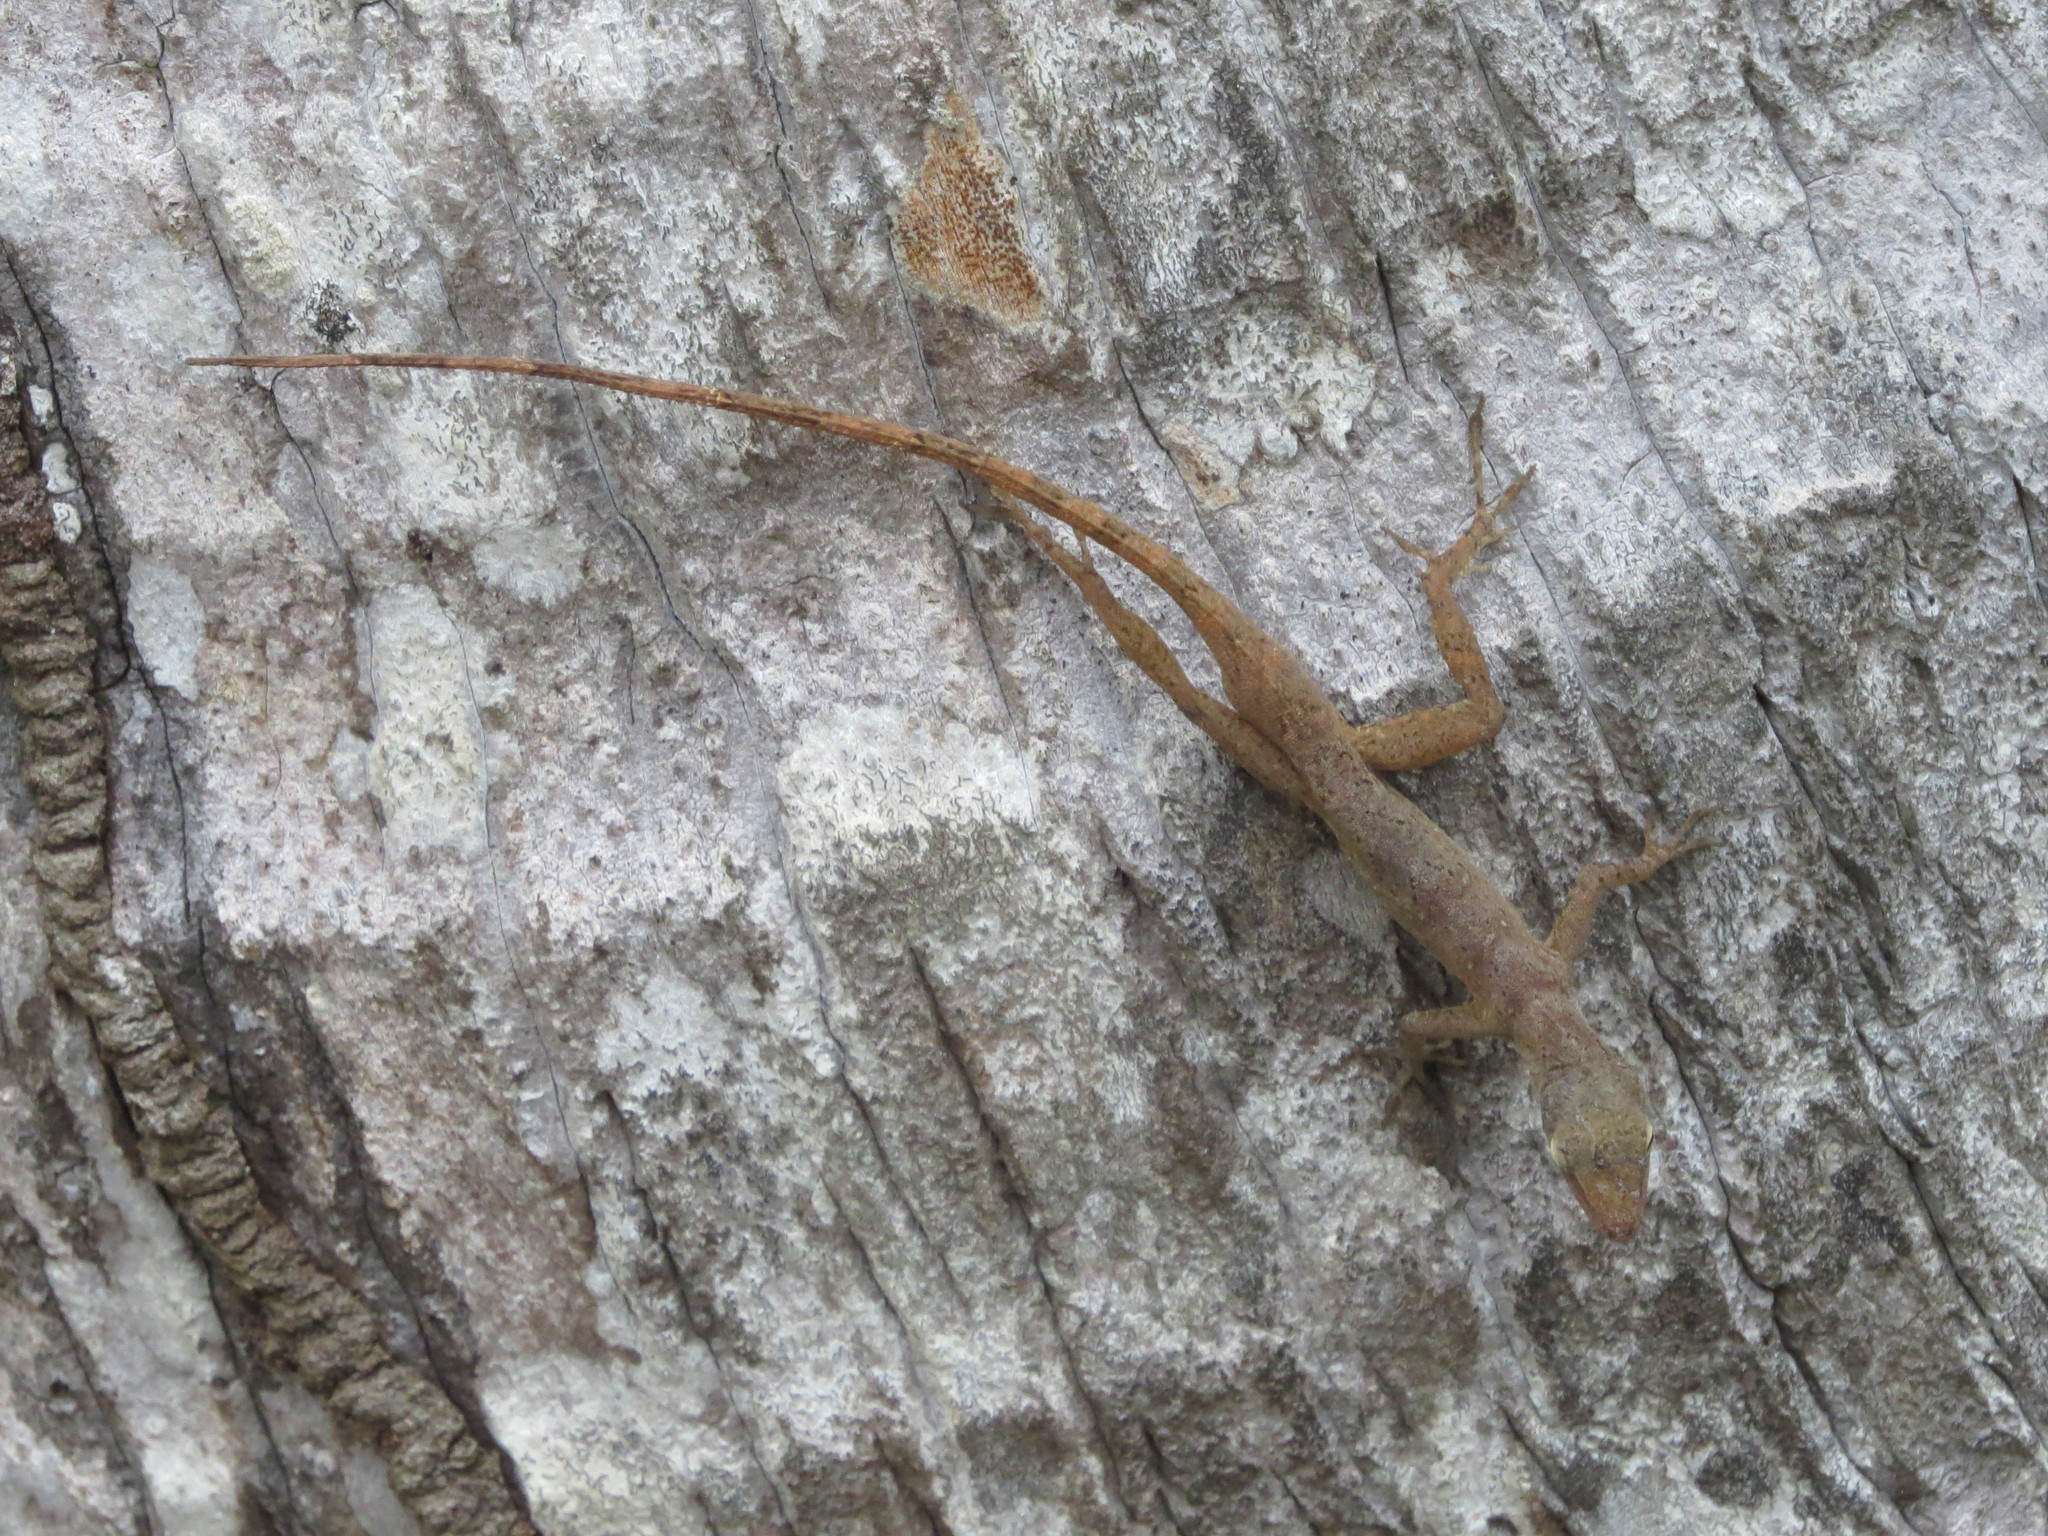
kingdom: Animalia
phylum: Chordata
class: Squamata
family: Dactyloidae
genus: Anolis
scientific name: Anolis pinchoti
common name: Crab cay anole
